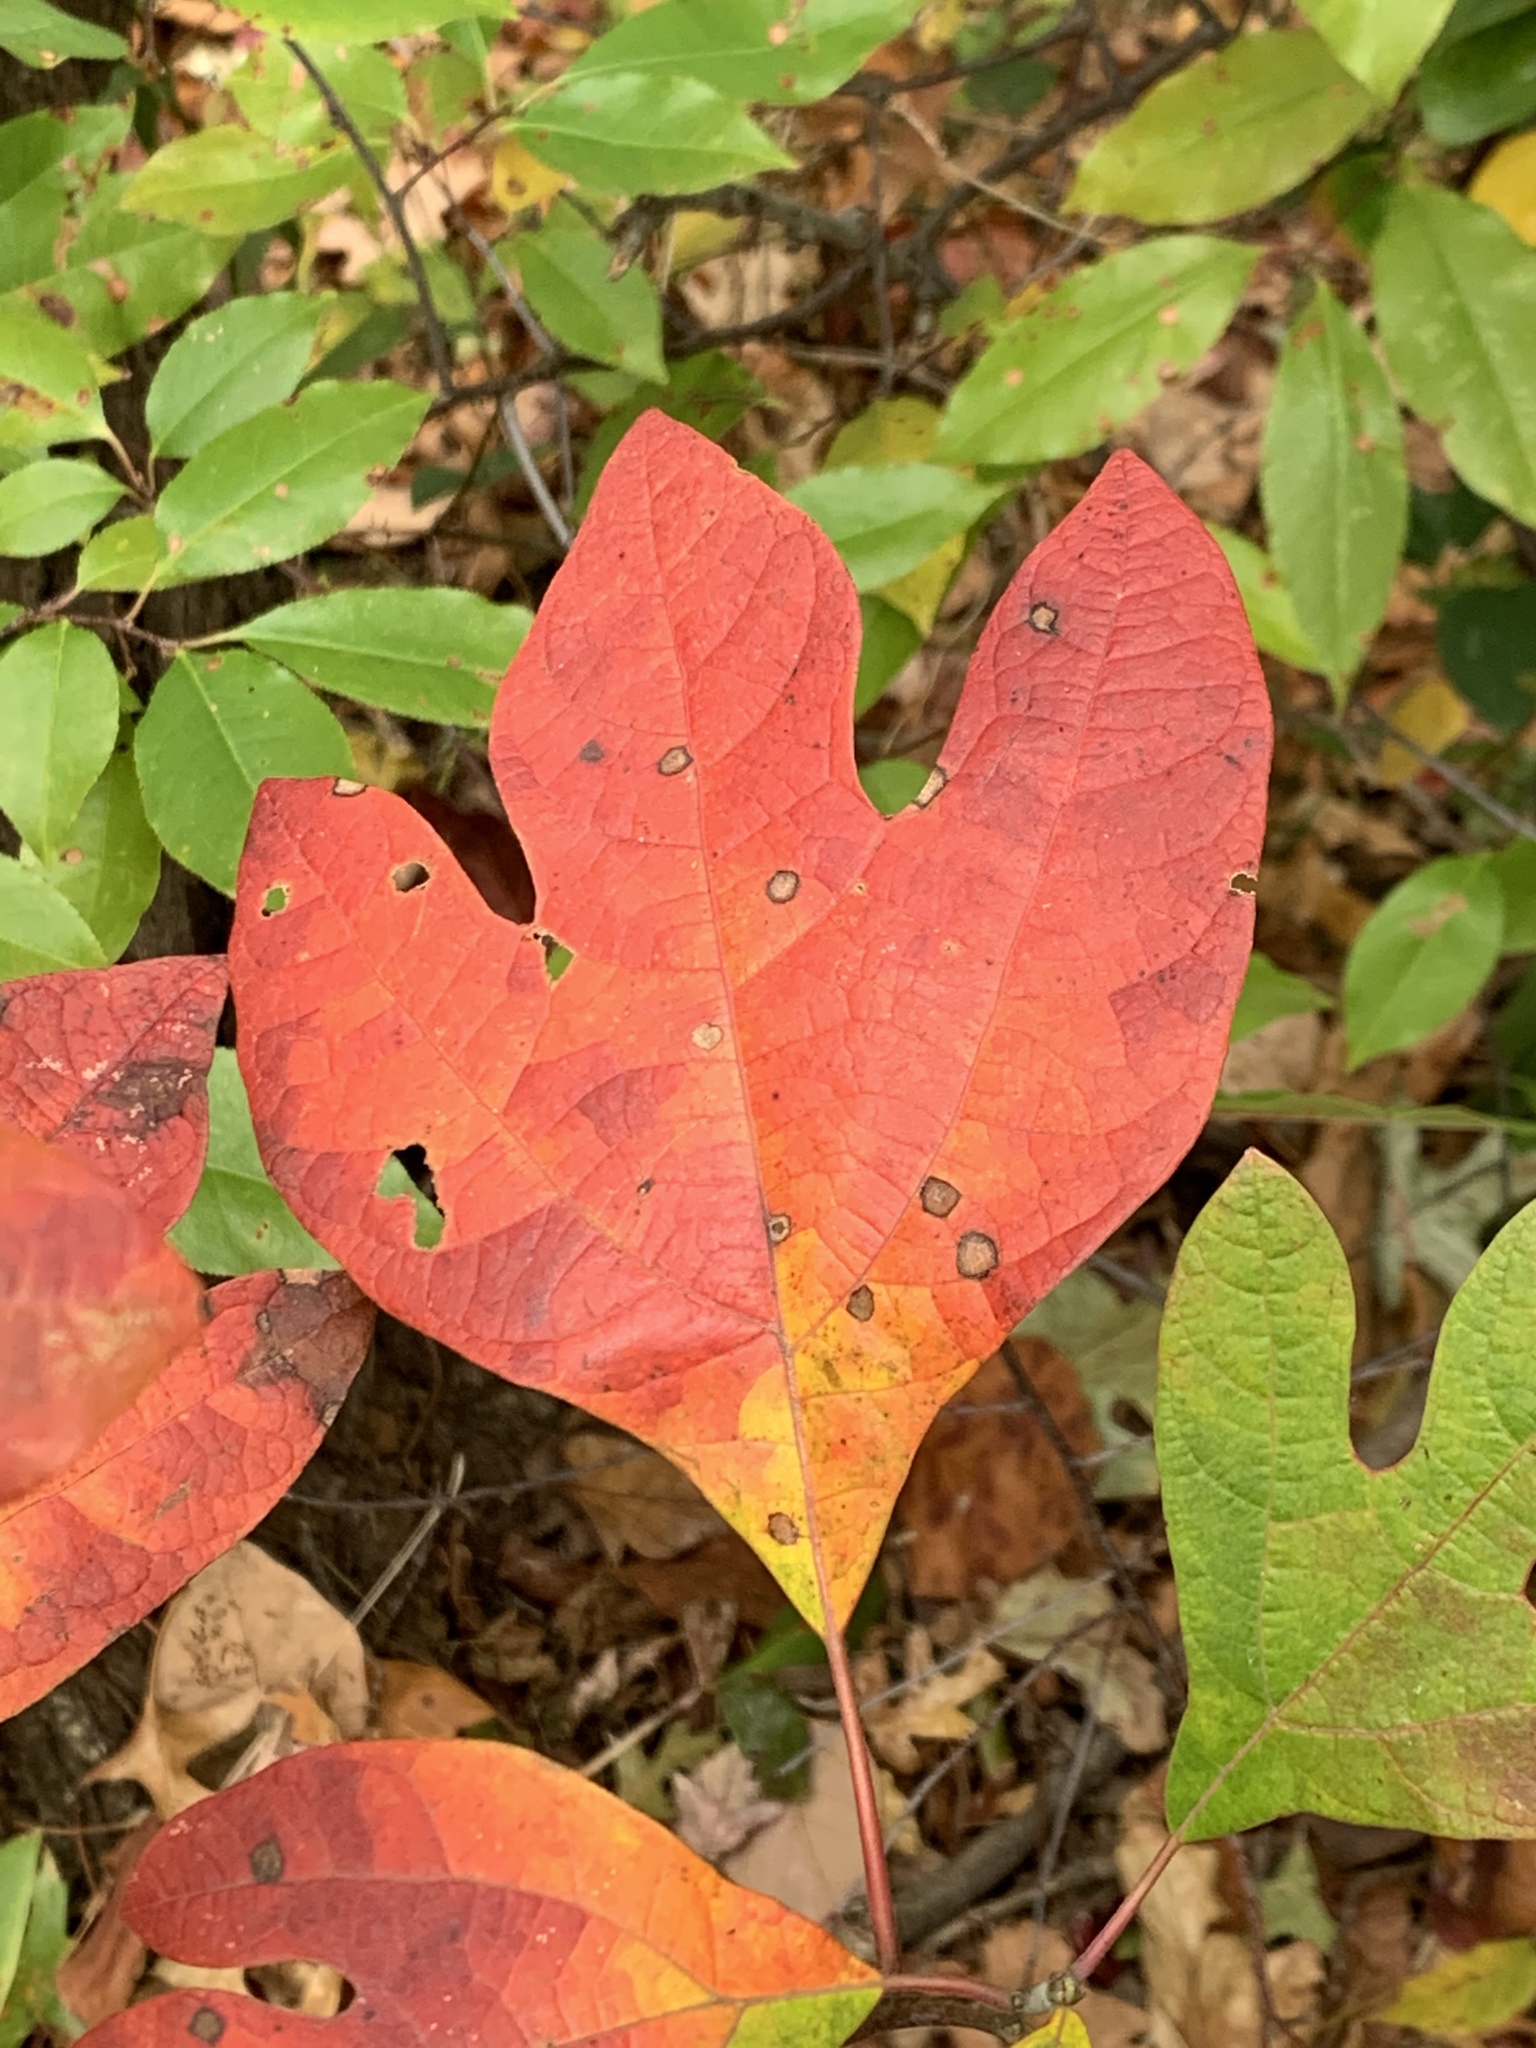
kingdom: Plantae
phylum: Tracheophyta
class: Magnoliopsida
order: Laurales
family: Lauraceae
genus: Sassafras
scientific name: Sassafras albidum
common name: Sassafras
